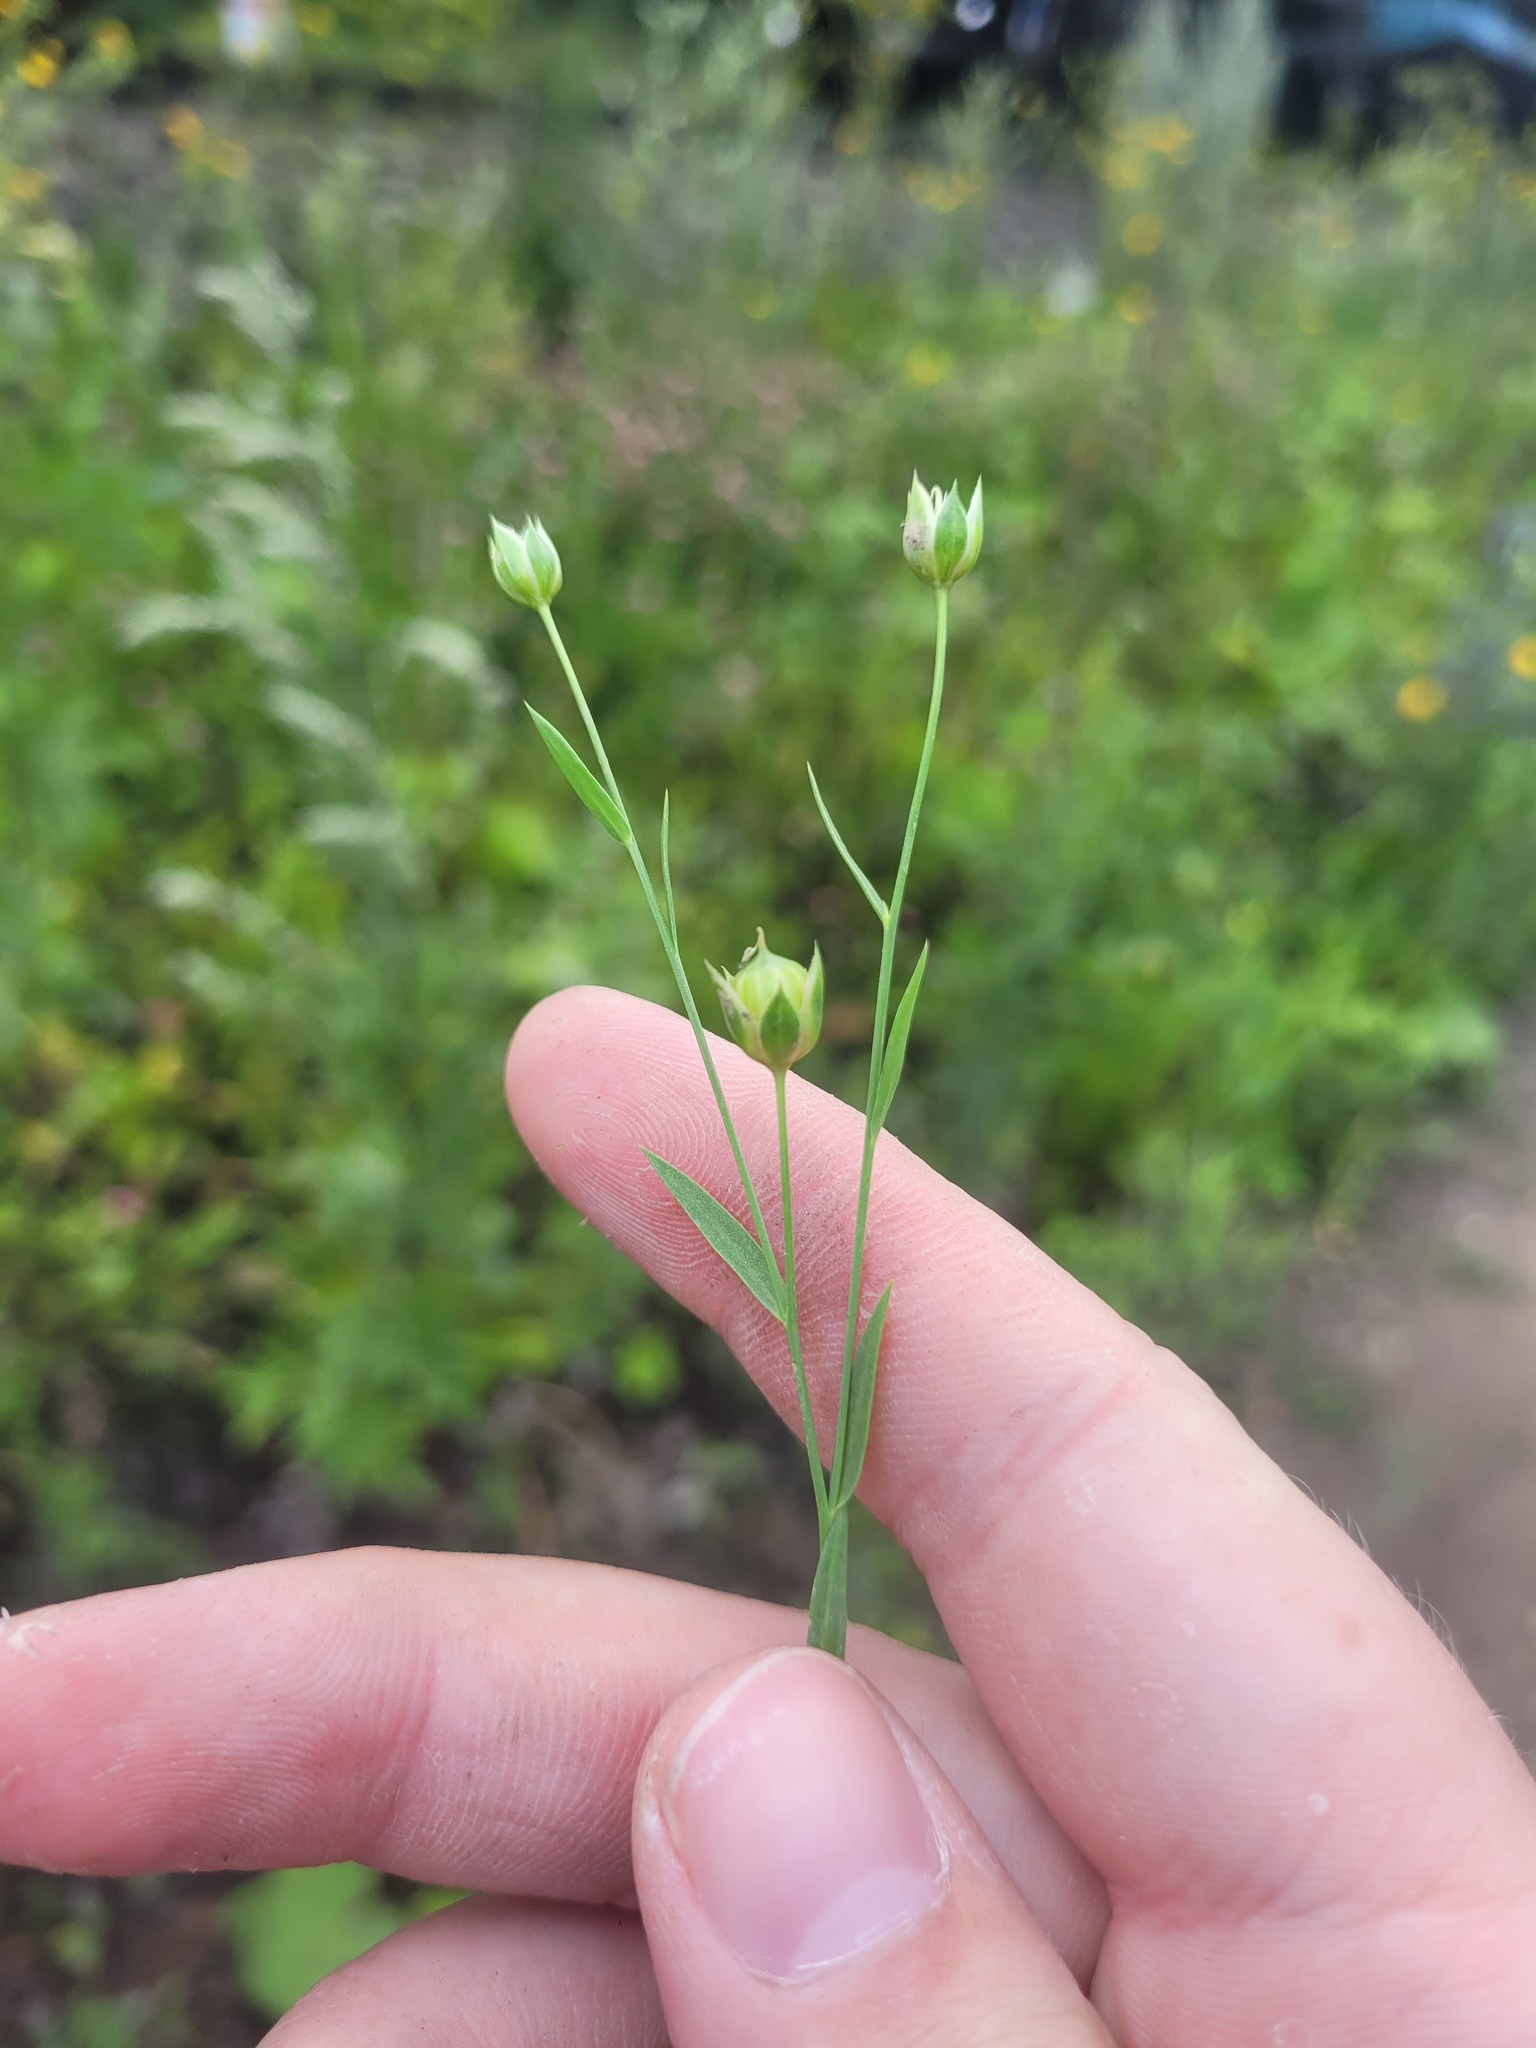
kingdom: Plantae
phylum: Tracheophyta
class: Magnoliopsida
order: Malpighiales
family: Linaceae
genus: Linum
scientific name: Linum usitatissimum
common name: Flax
